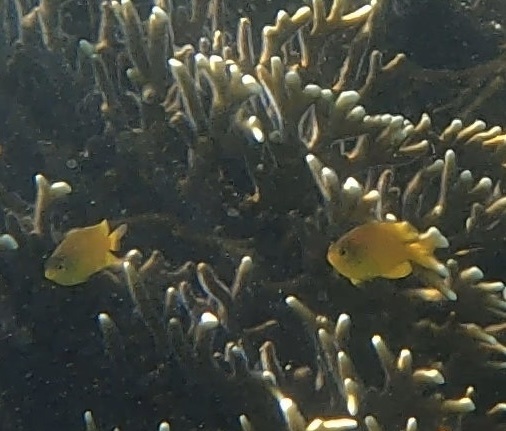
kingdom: Animalia
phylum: Chordata
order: Perciformes
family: Pomacentridae
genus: Pomacentrus
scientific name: Pomacentrus moluccensis
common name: Lemon damsel
